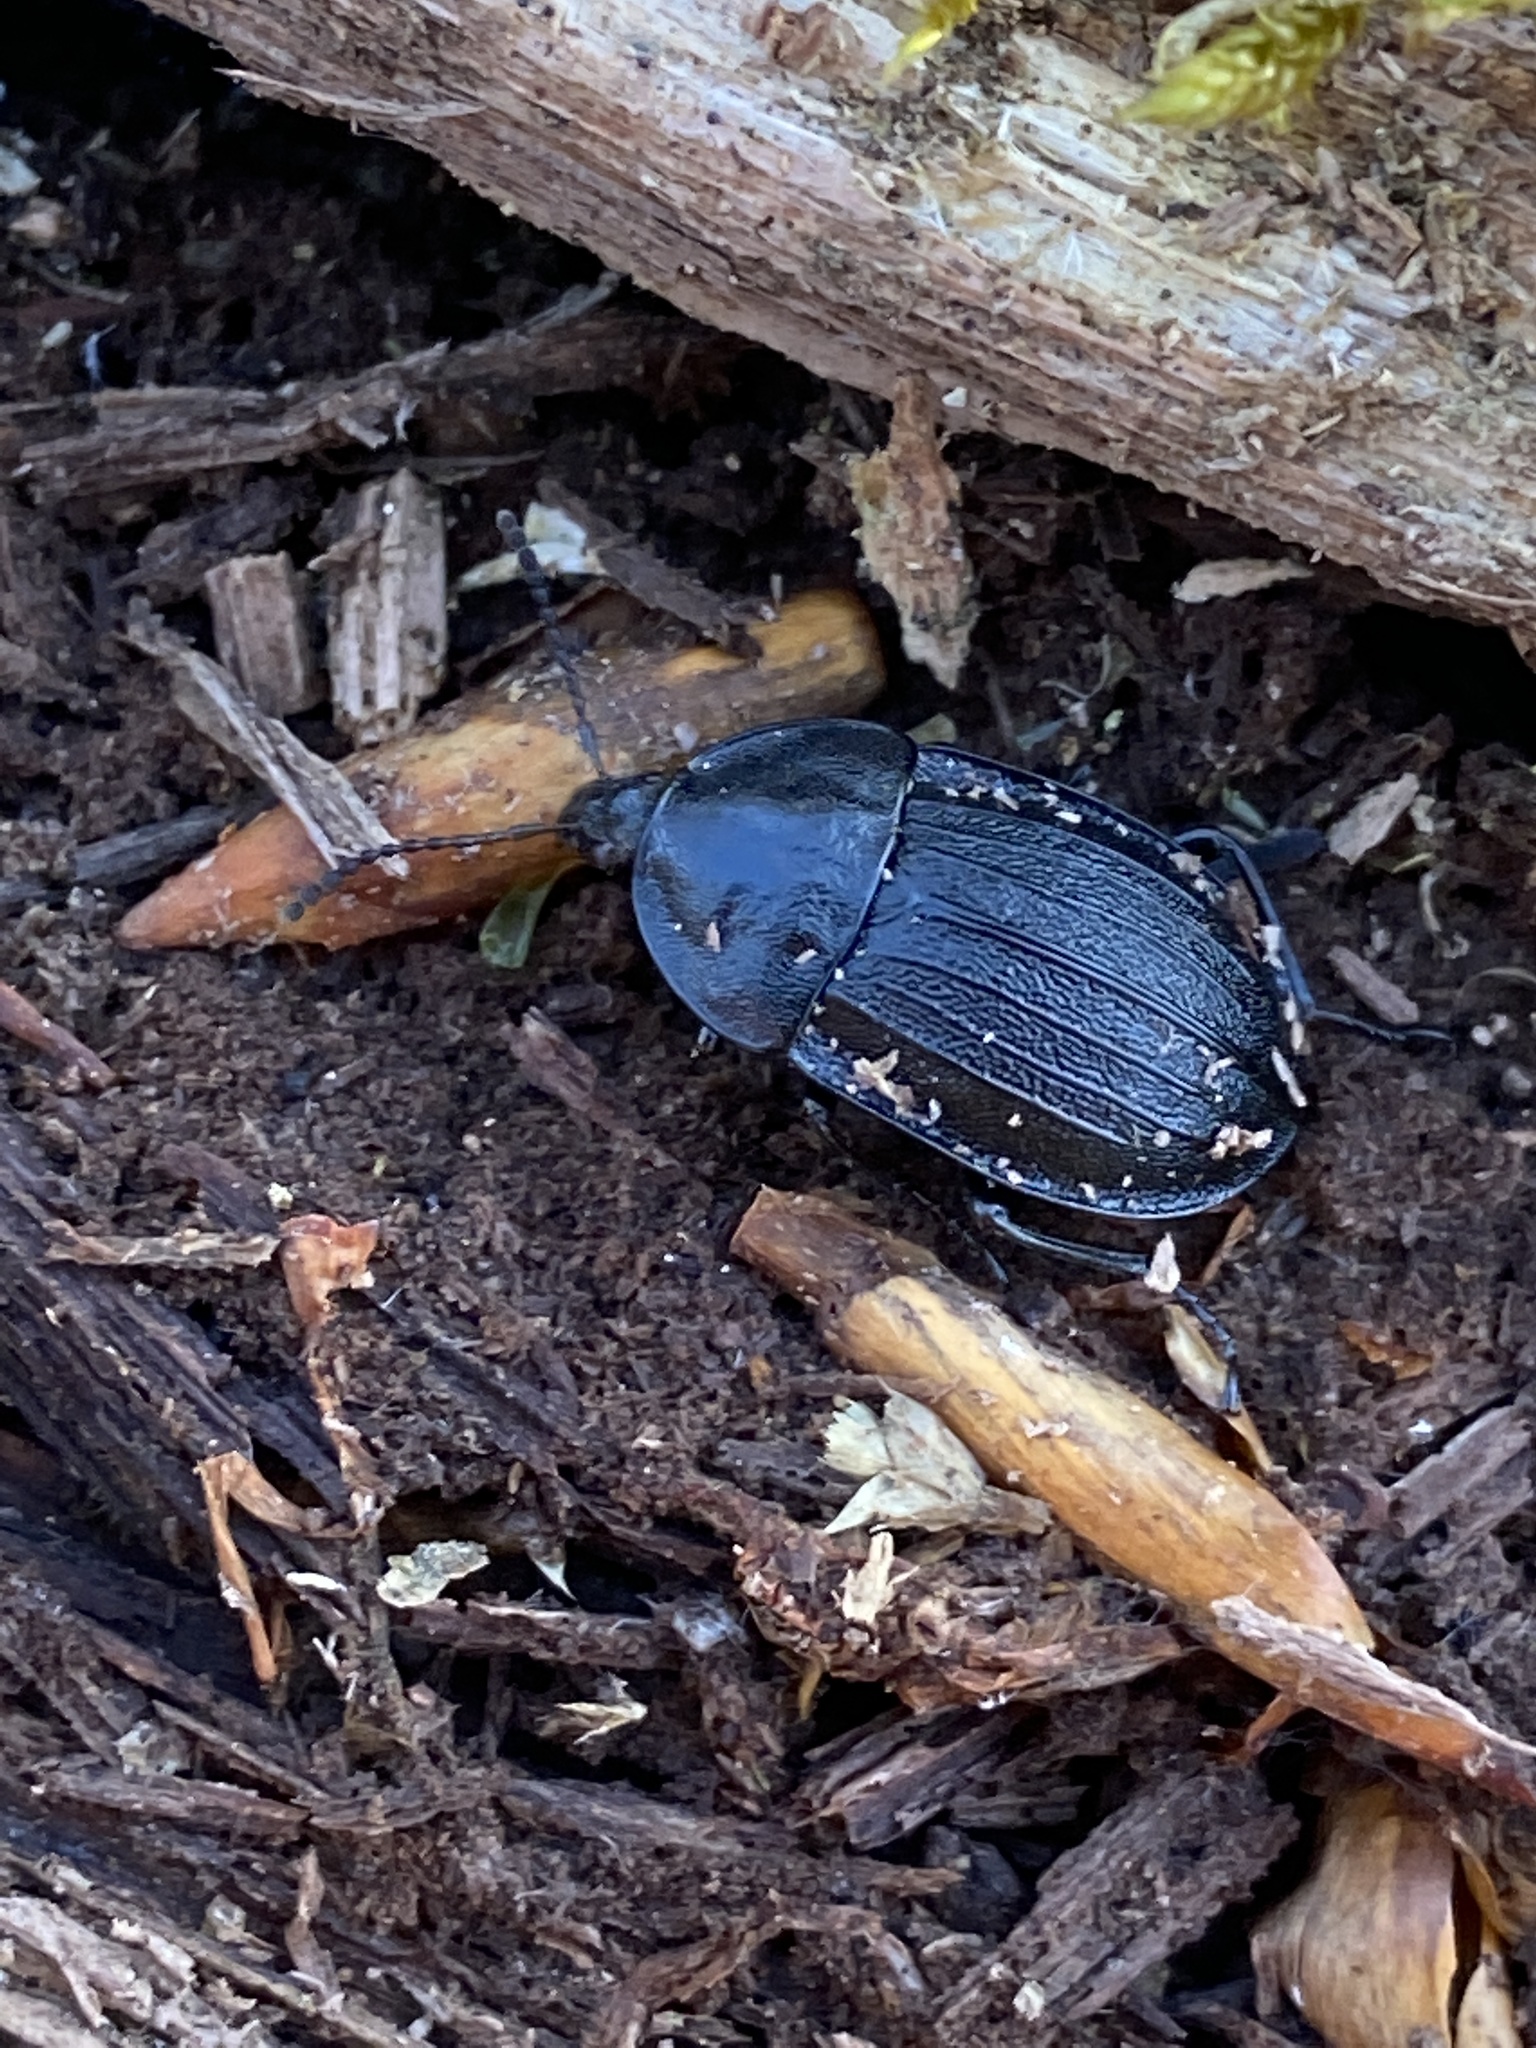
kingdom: Animalia
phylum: Arthropoda
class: Insecta
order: Coleoptera
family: Staphylinidae
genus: Silpha
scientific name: Silpha atrata
